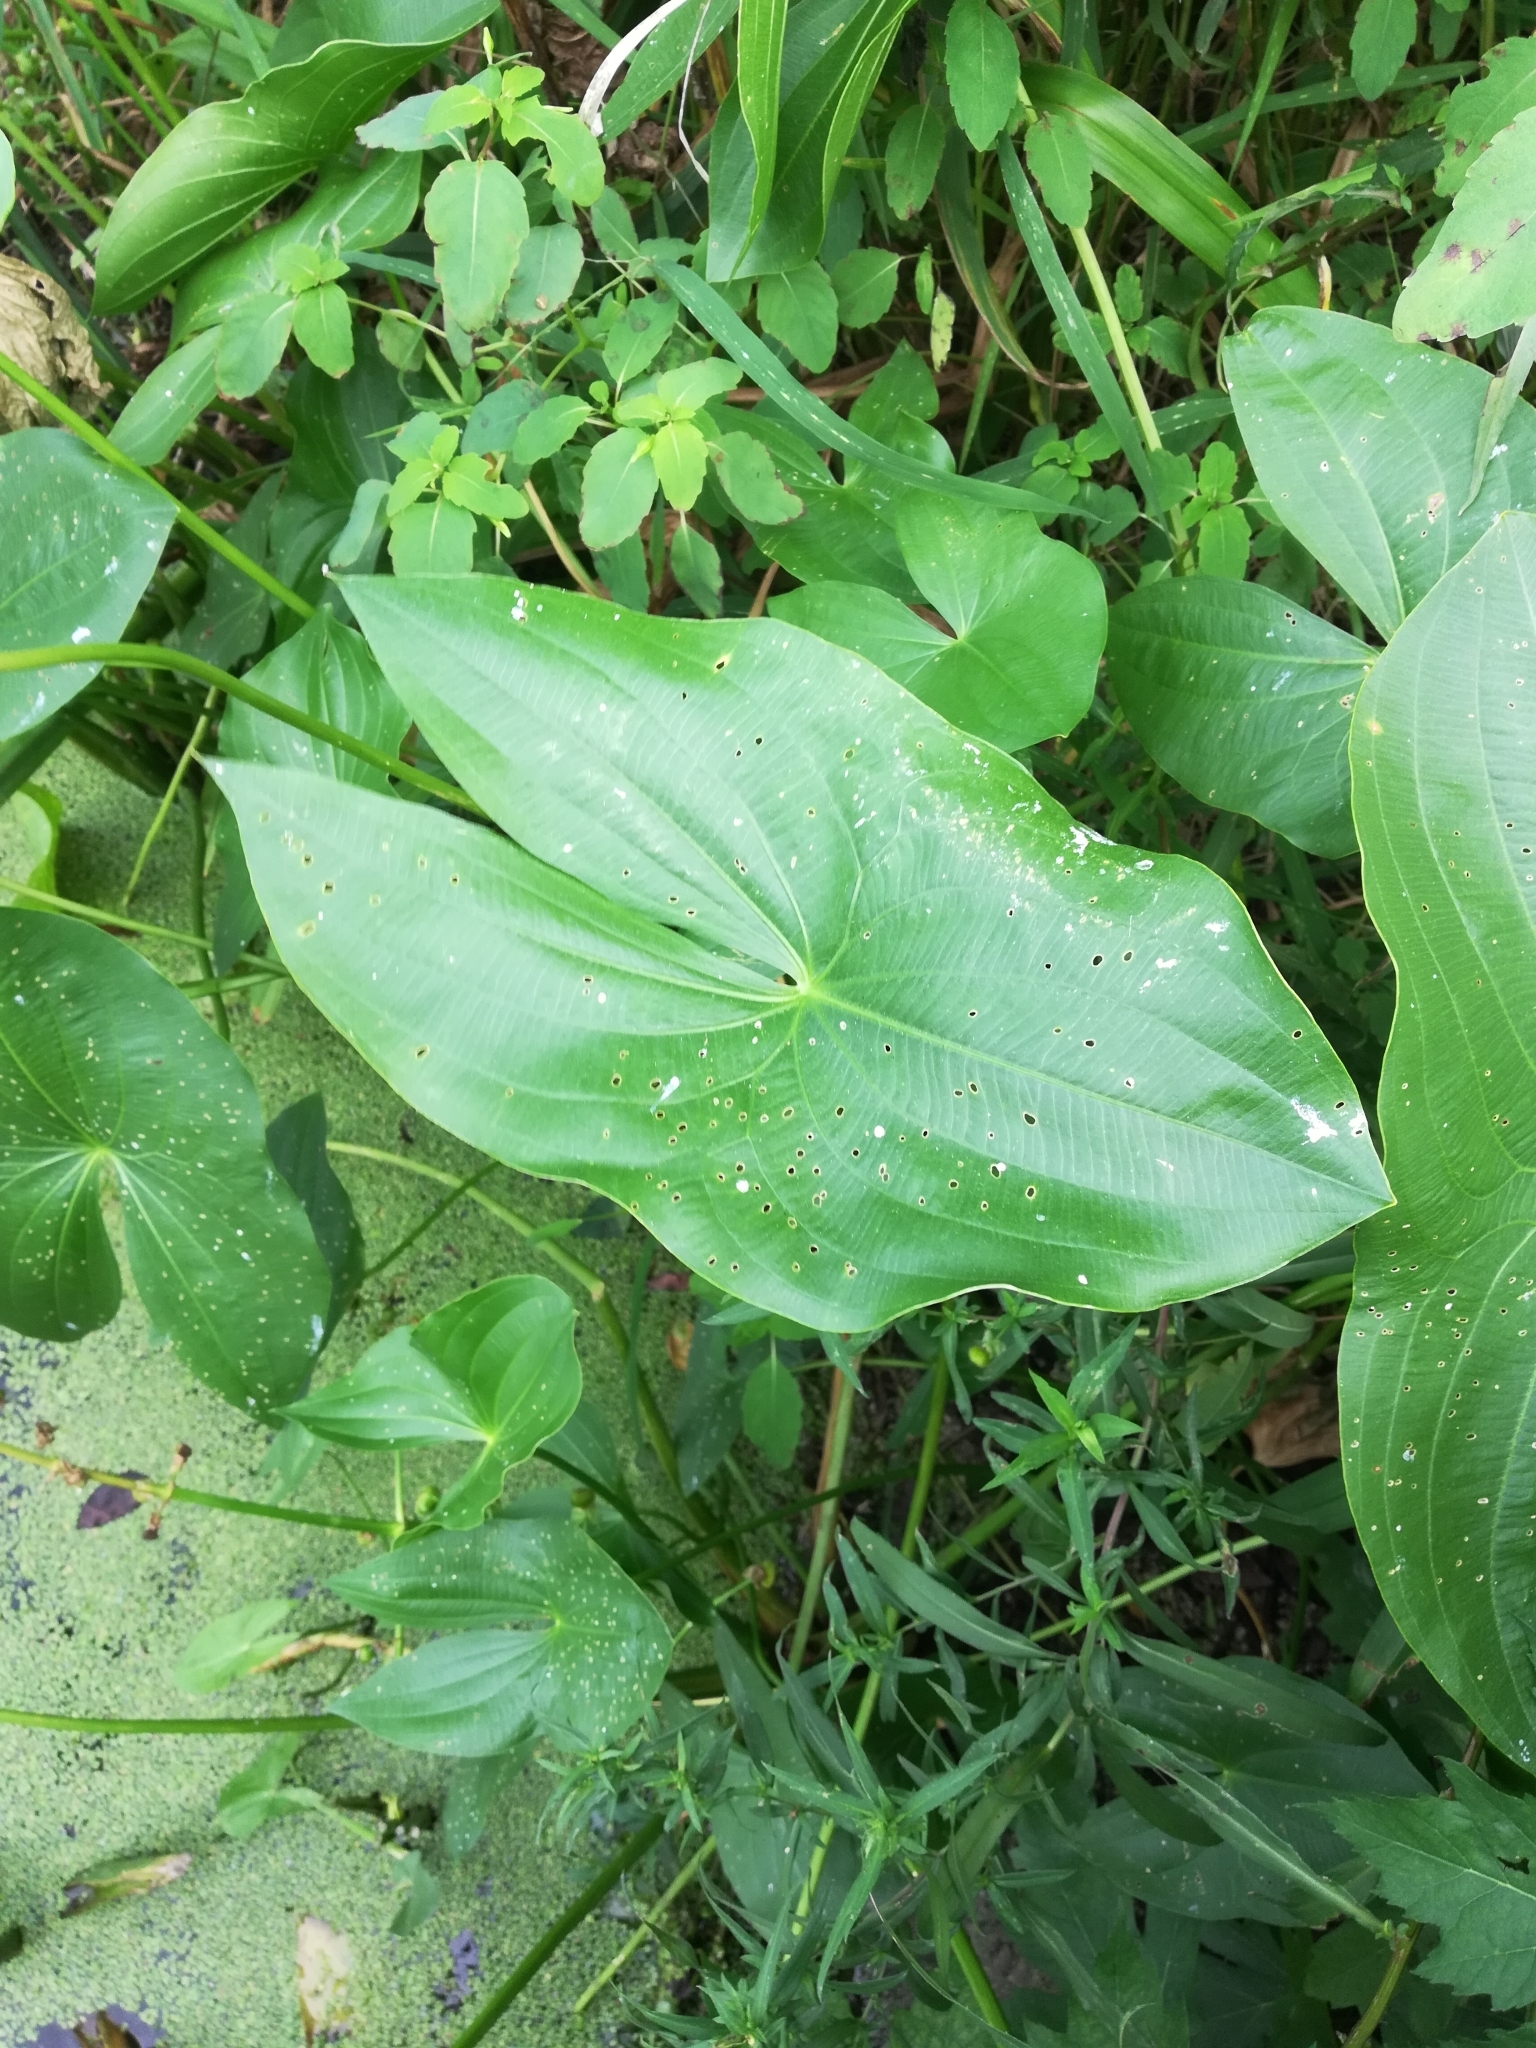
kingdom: Plantae
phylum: Tracheophyta
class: Liliopsida
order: Alismatales
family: Alismataceae
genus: Sagittaria
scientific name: Sagittaria
